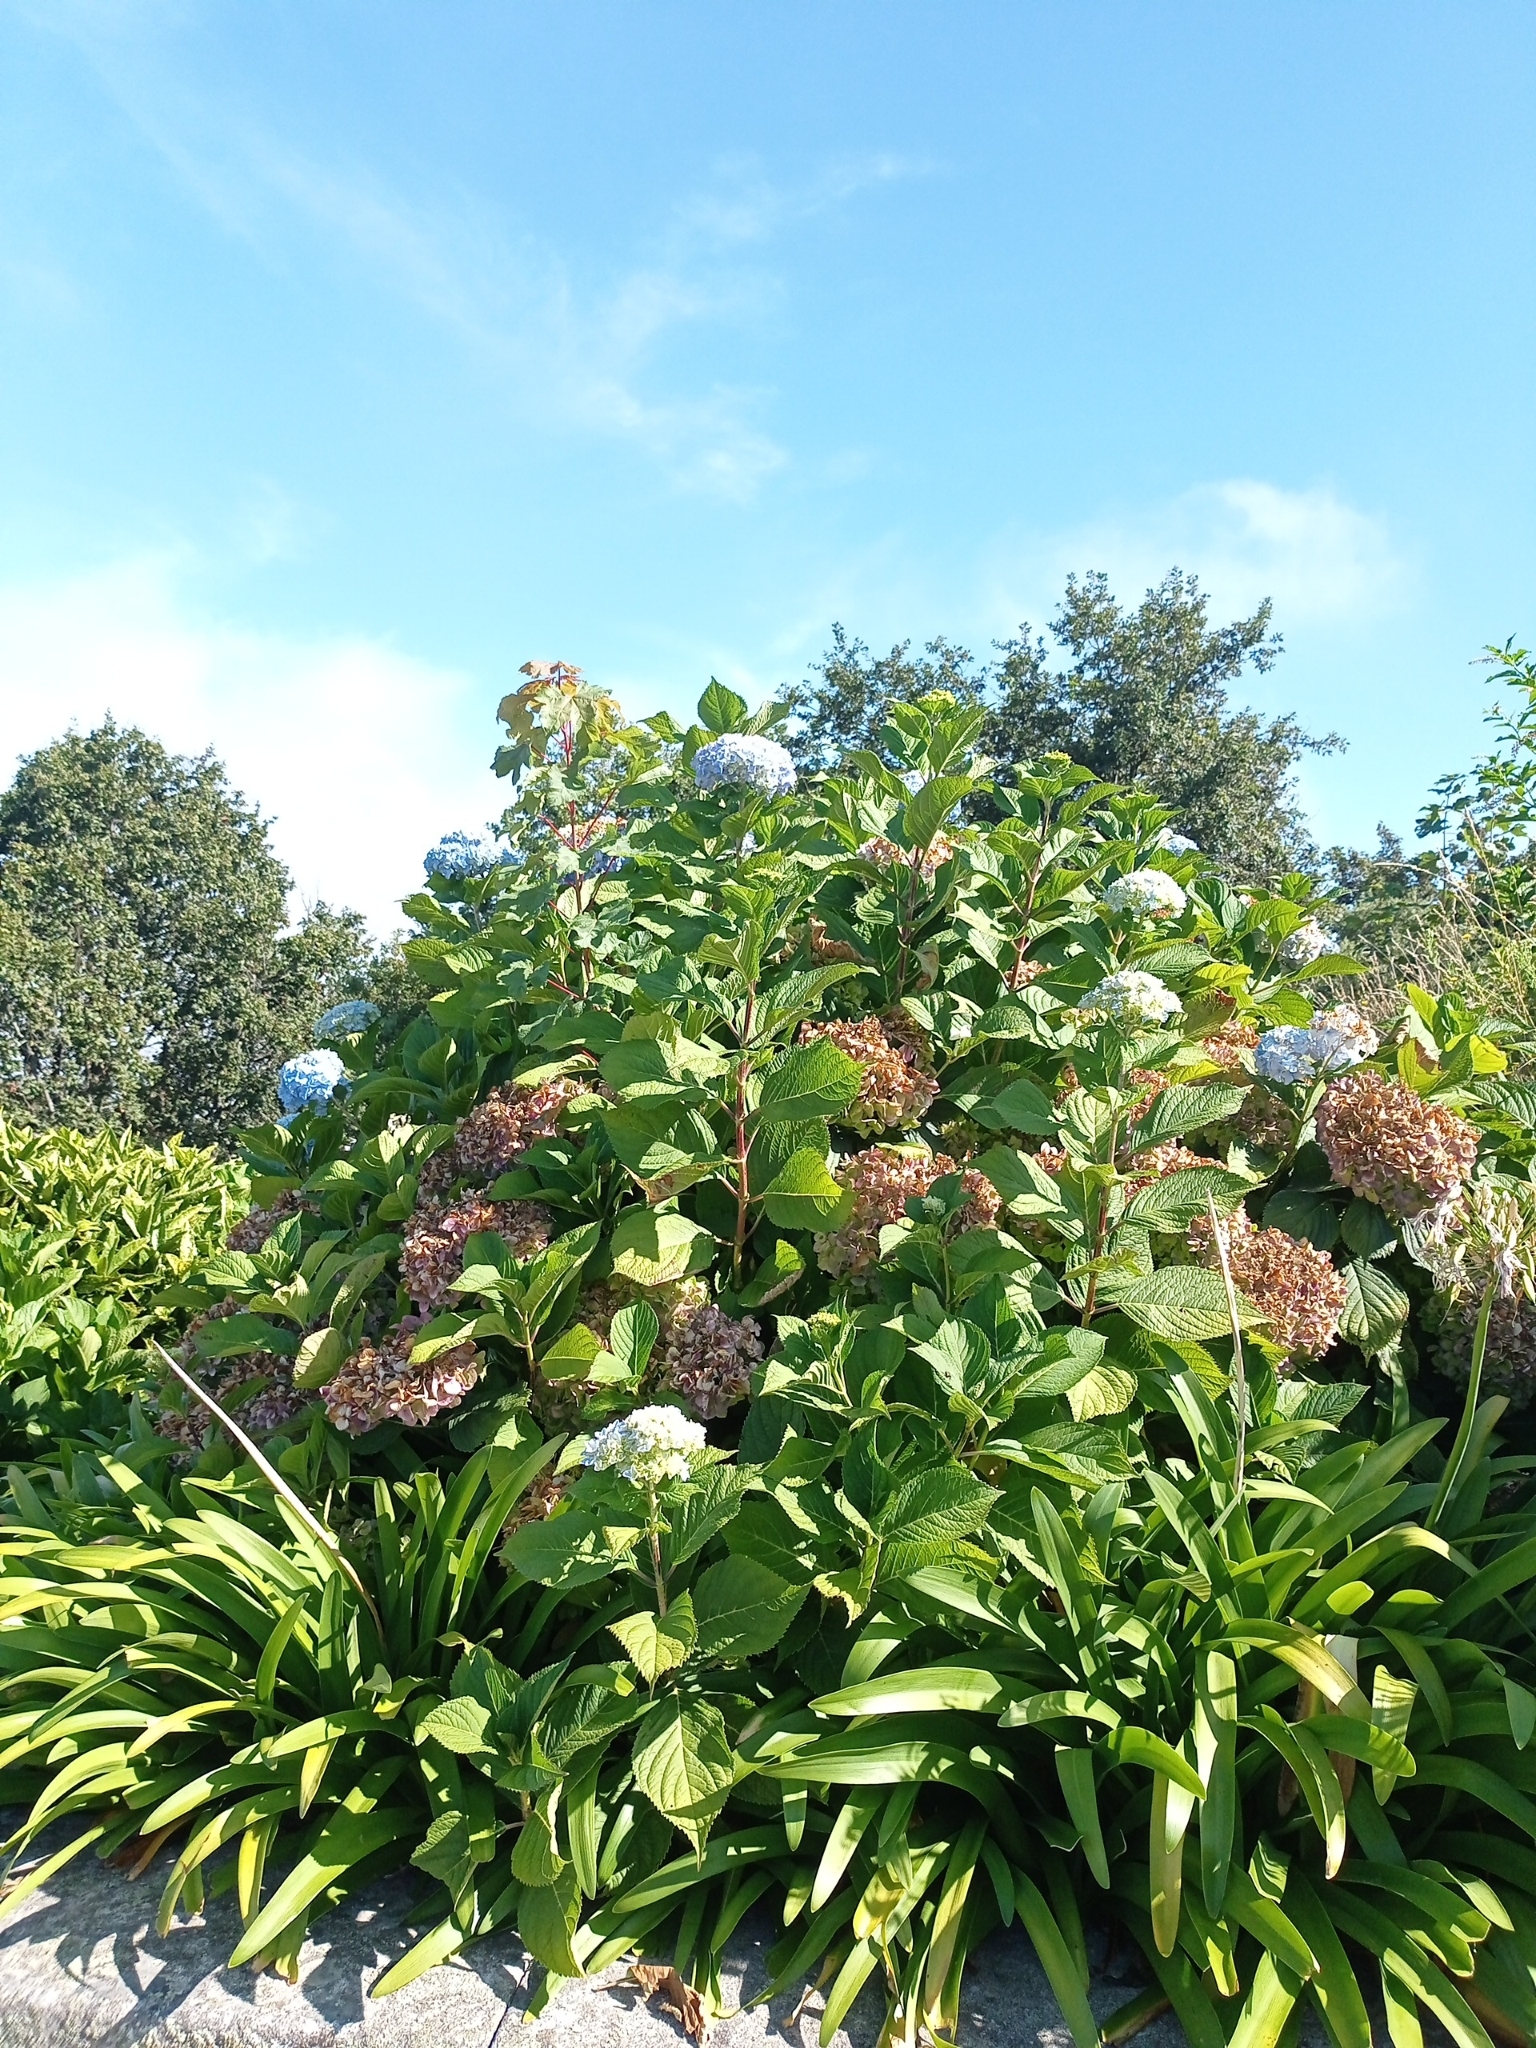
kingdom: Plantae
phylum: Tracheophyta
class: Magnoliopsida
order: Cornales
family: Hydrangeaceae
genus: Hydrangea
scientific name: Hydrangea macrophylla
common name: Hydrangea
